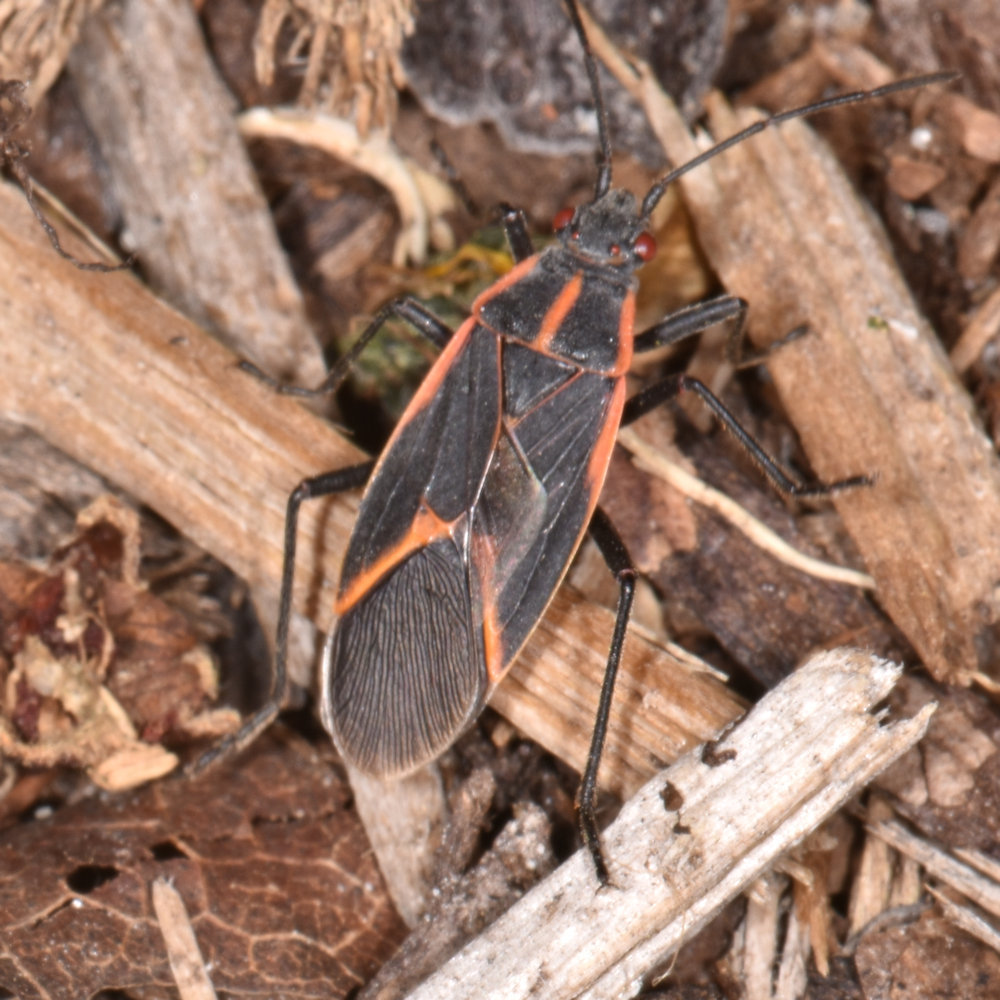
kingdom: Animalia
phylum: Arthropoda
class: Insecta
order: Hemiptera
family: Rhopalidae
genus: Boisea
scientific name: Boisea trivittata
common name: Boxelder bug
